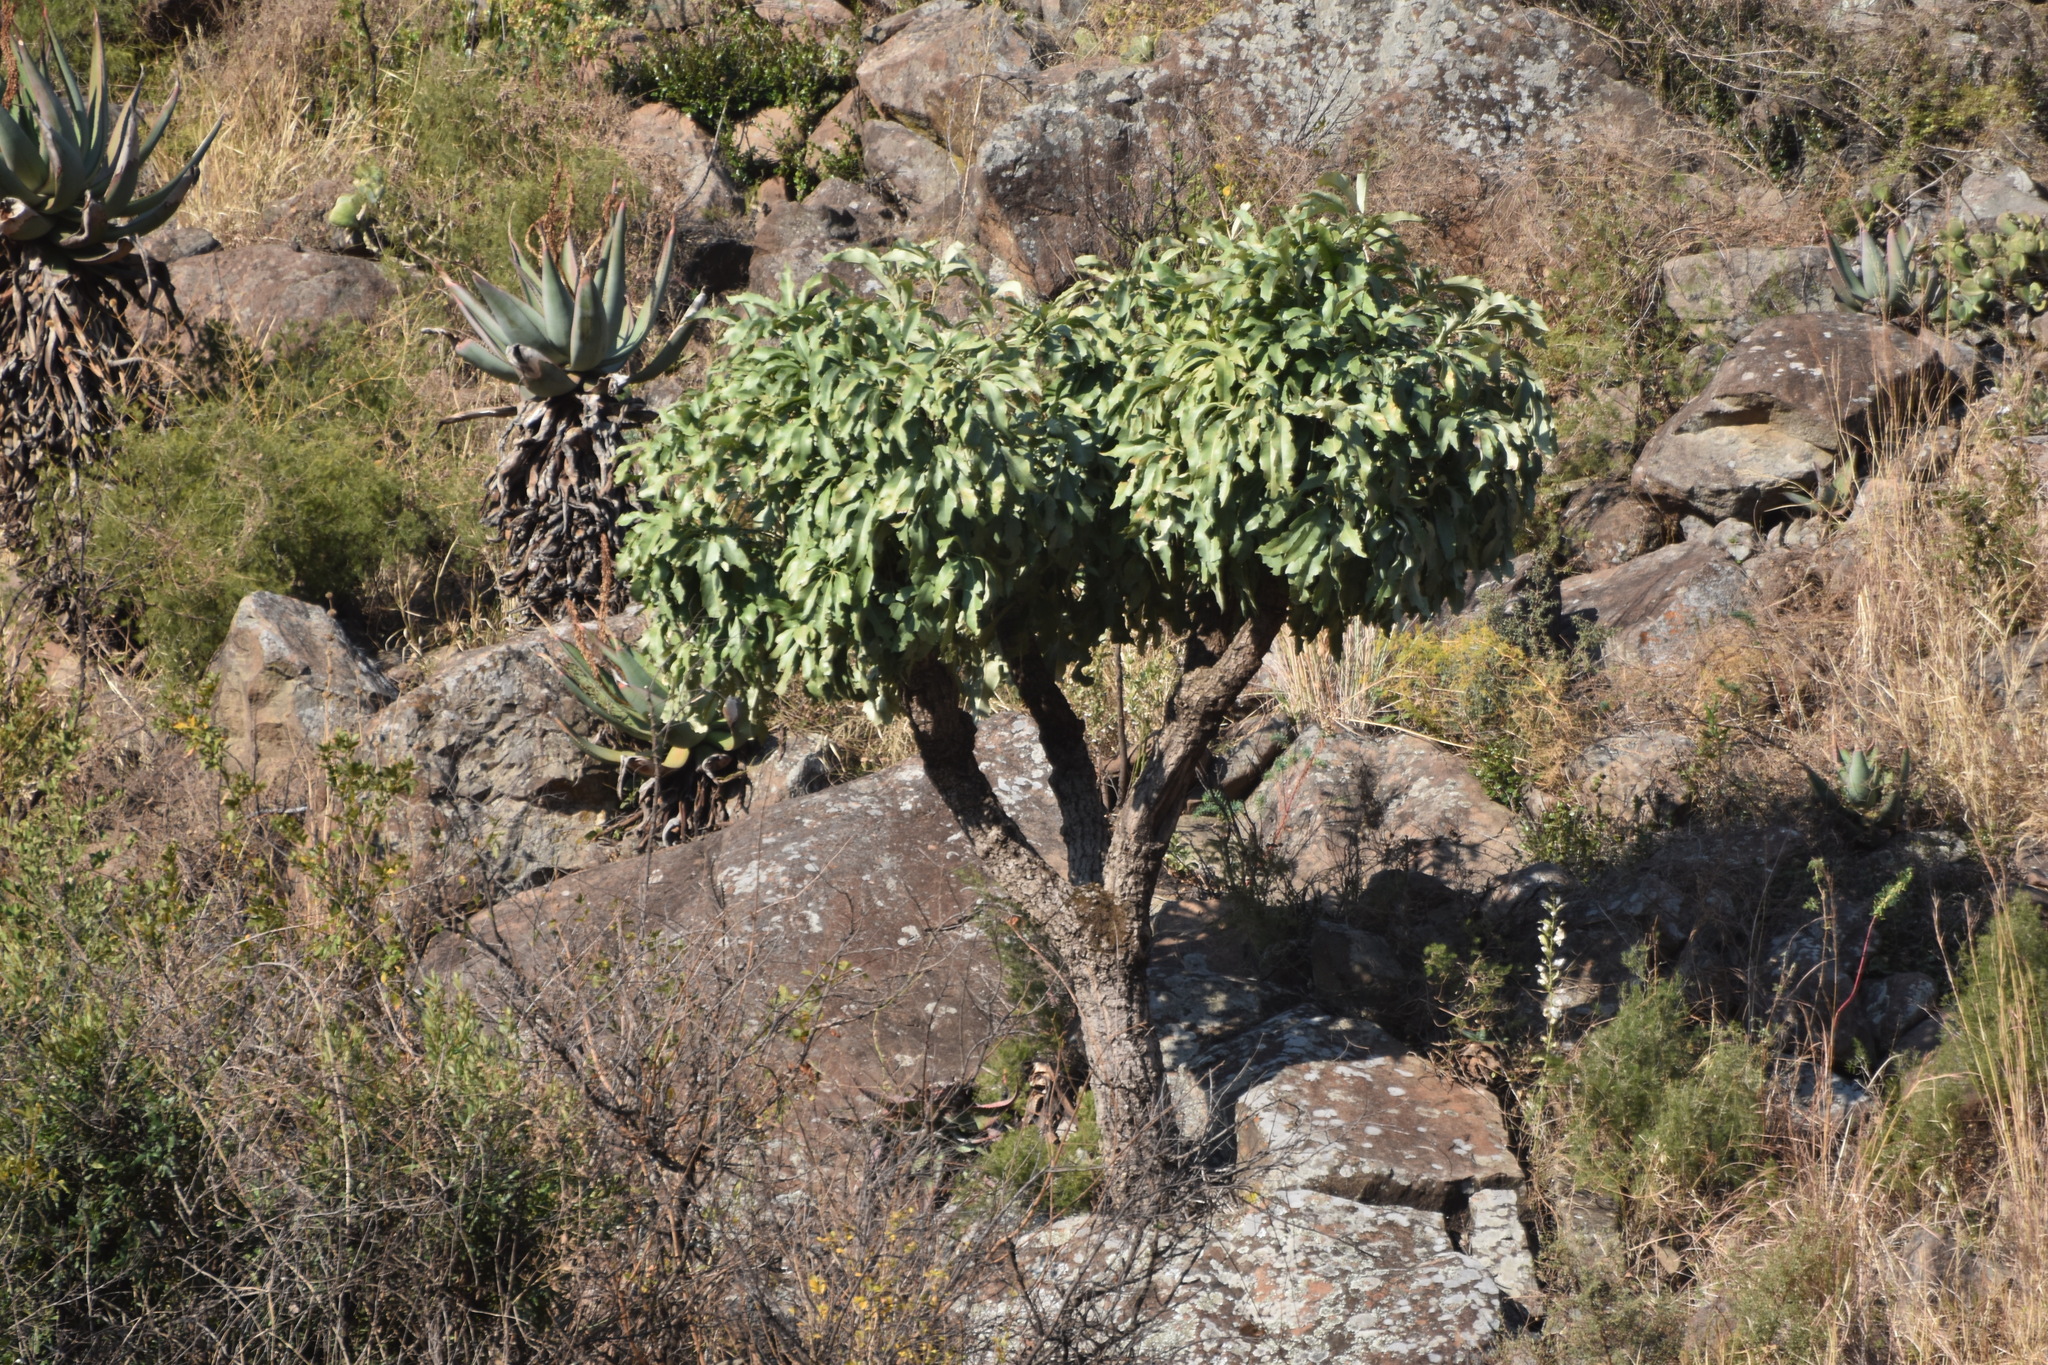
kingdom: Plantae
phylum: Tracheophyta
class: Magnoliopsida
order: Apiales
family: Araliaceae
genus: Cussonia
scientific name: Cussonia paniculata
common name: Cabbagetree
